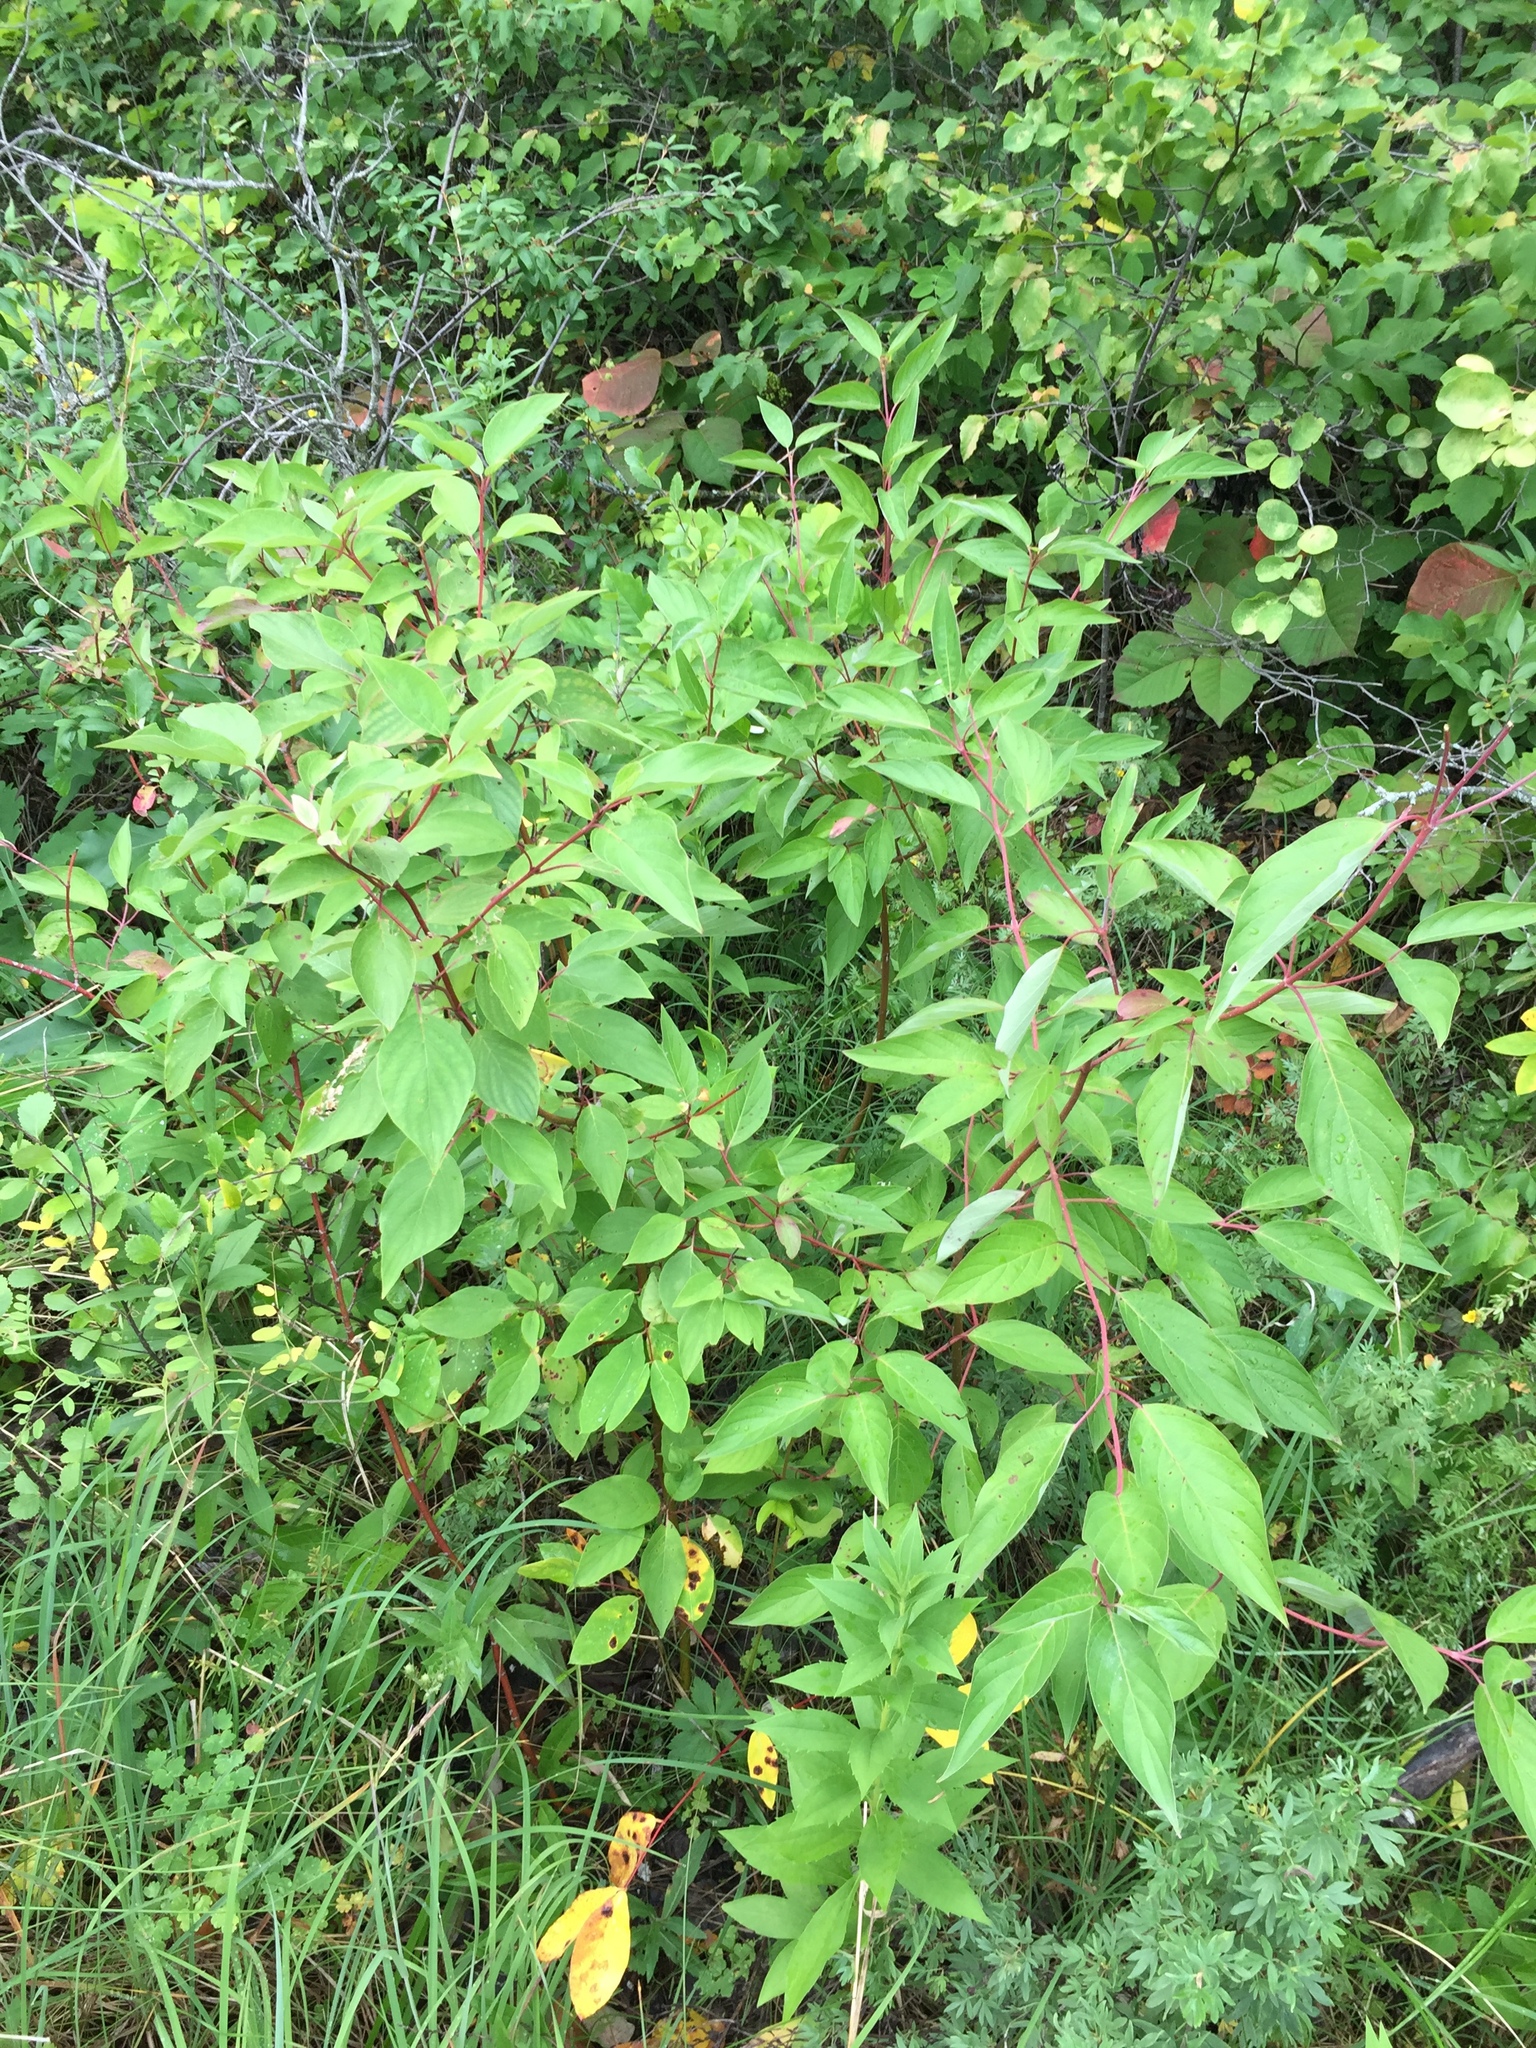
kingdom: Plantae
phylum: Tracheophyta
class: Magnoliopsida
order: Cornales
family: Cornaceae
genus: Cornus
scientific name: Cornus sericea
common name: Red-osier dogwood
